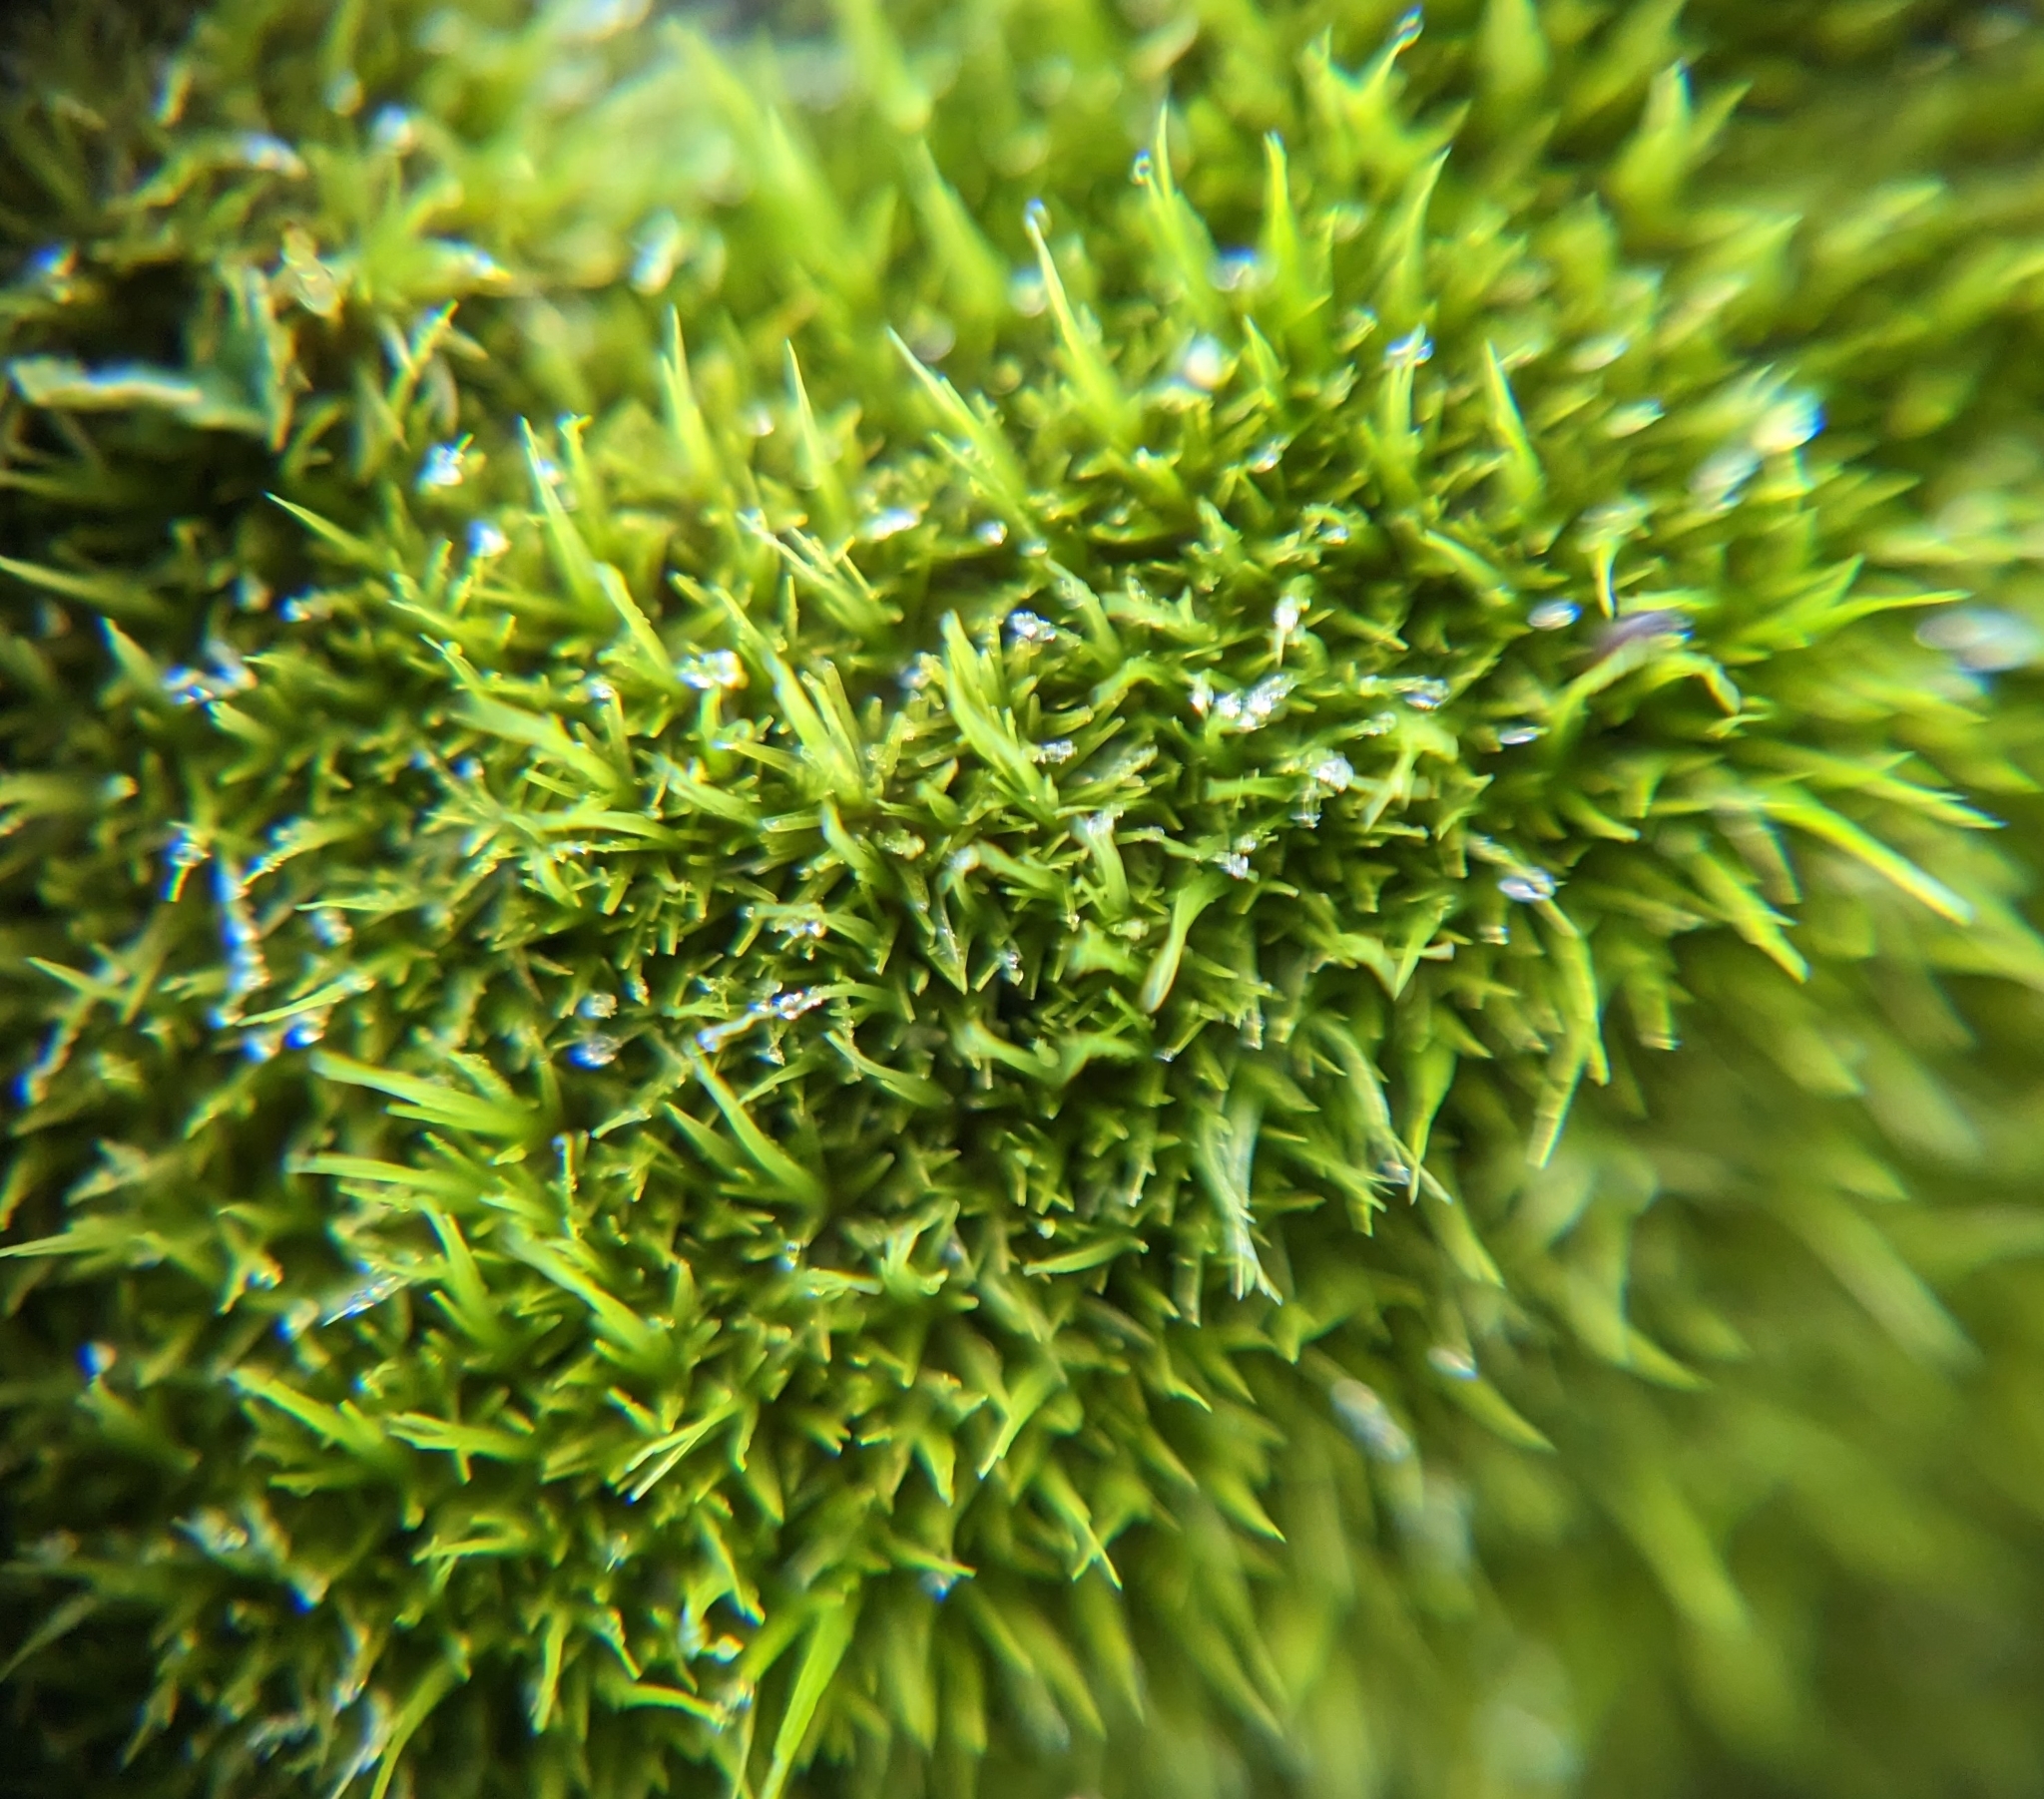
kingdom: Plantae
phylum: Bryophyta
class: Bryopsida
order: Dicranales
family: Dicranaceae
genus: Orthodicranum
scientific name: Orthodicranum tauricum
